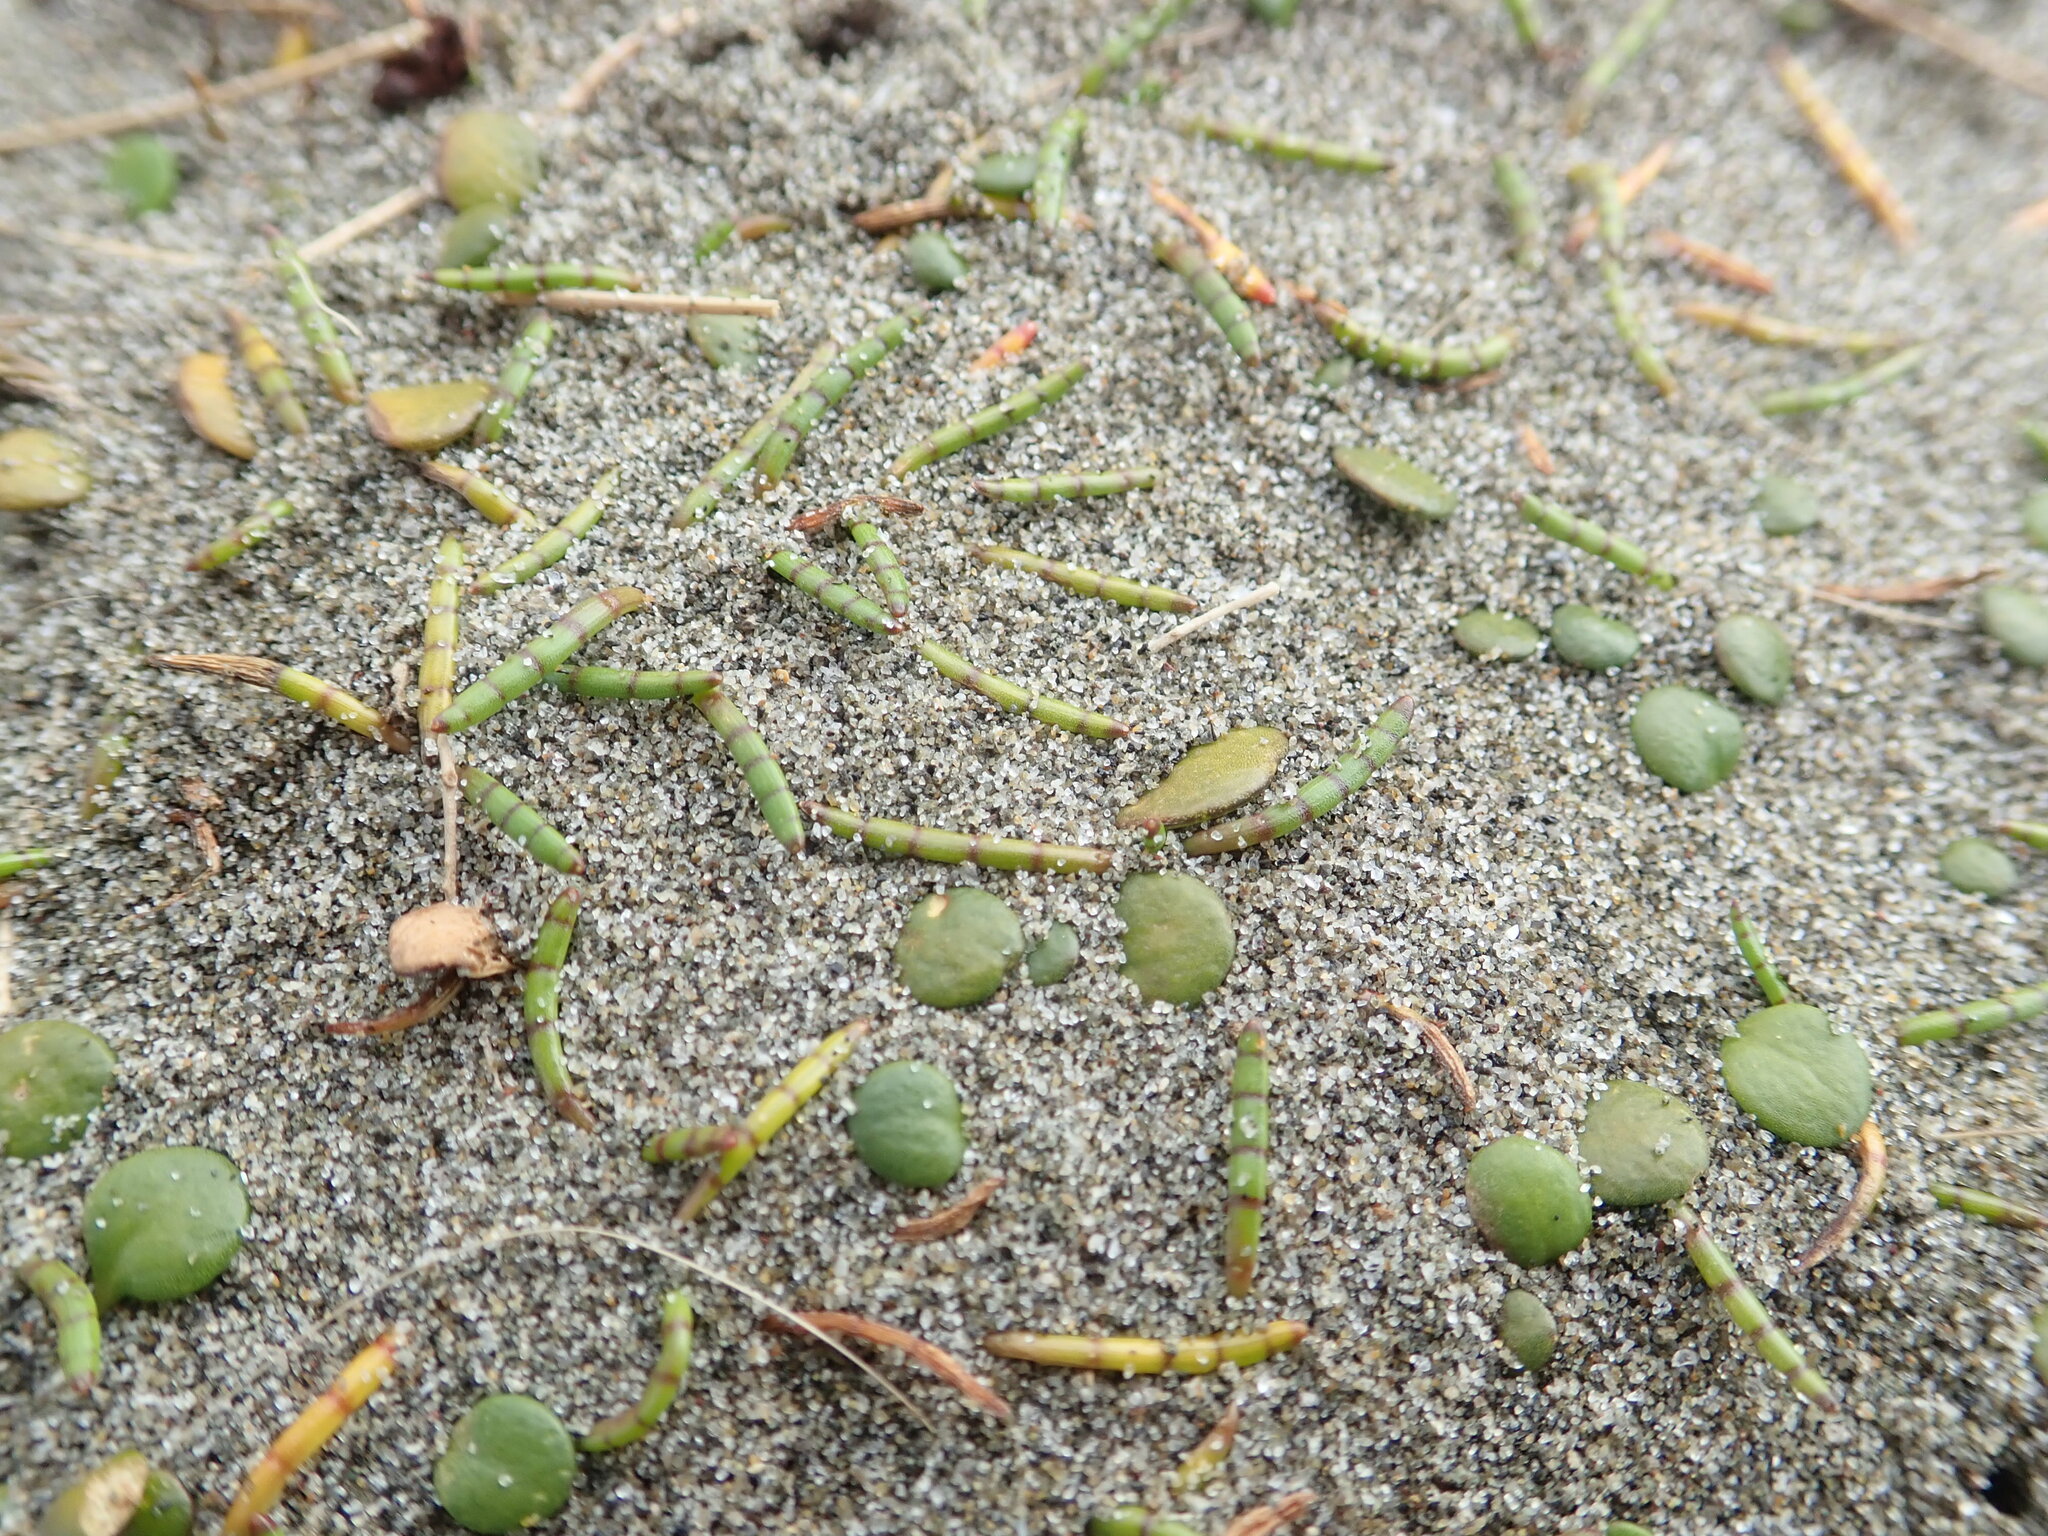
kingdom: Plantae
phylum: Tracheophyta
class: Magnoliopsida
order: Apiales
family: Apiaceae
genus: Lilaeopsis
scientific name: Lilaeopsis novae-zelandiae
